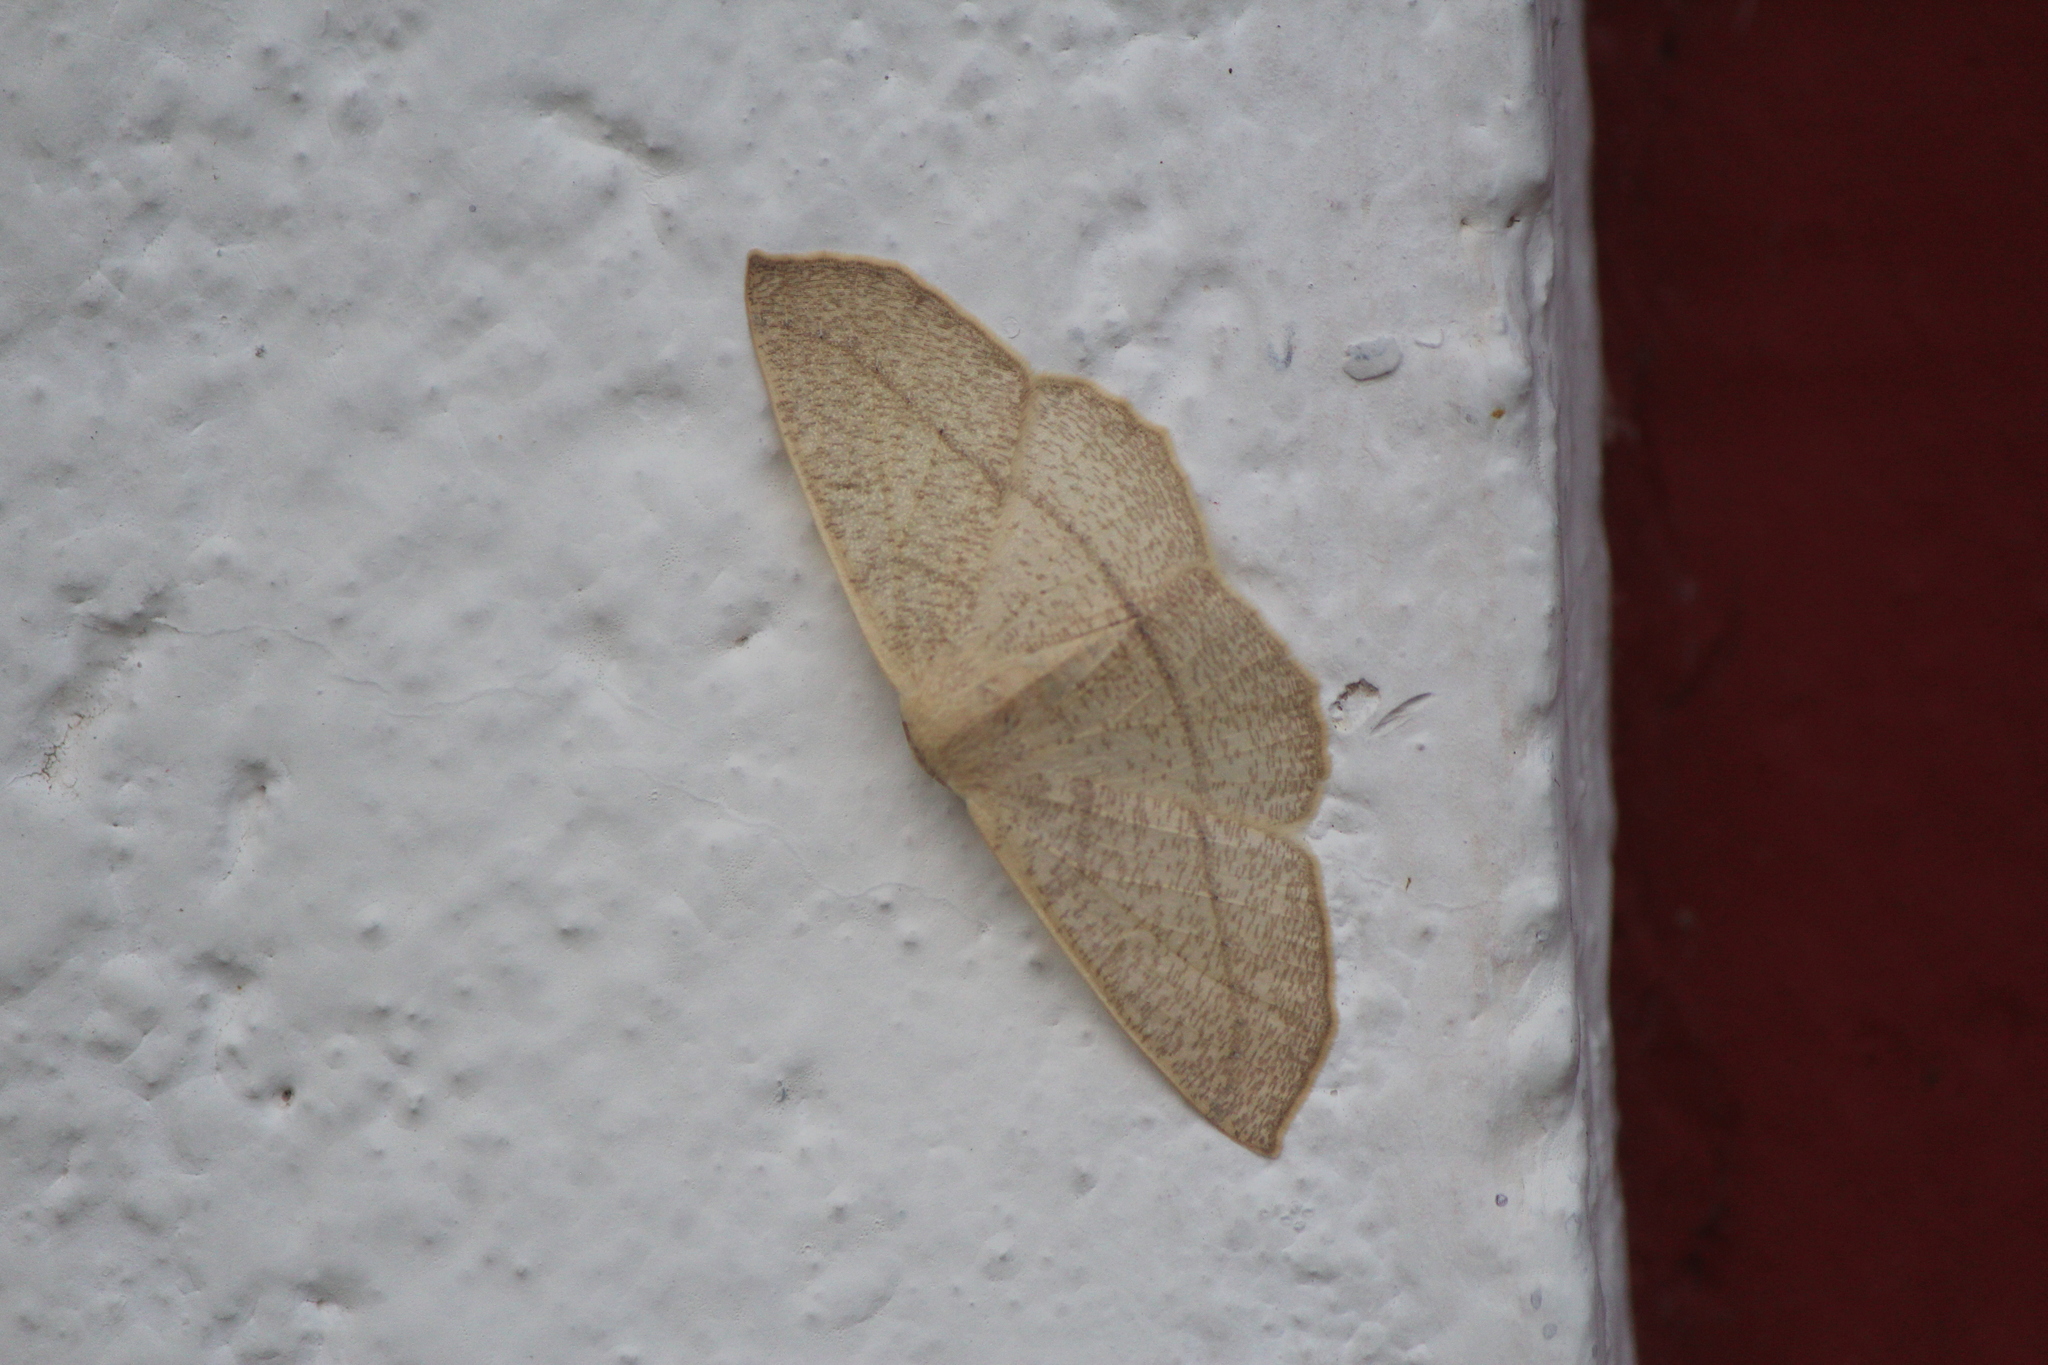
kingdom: Animalia
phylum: Arthropoda
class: Insecta
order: Lepidoptera
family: Geometridae
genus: Sabulodes
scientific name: Sabulodes arses
